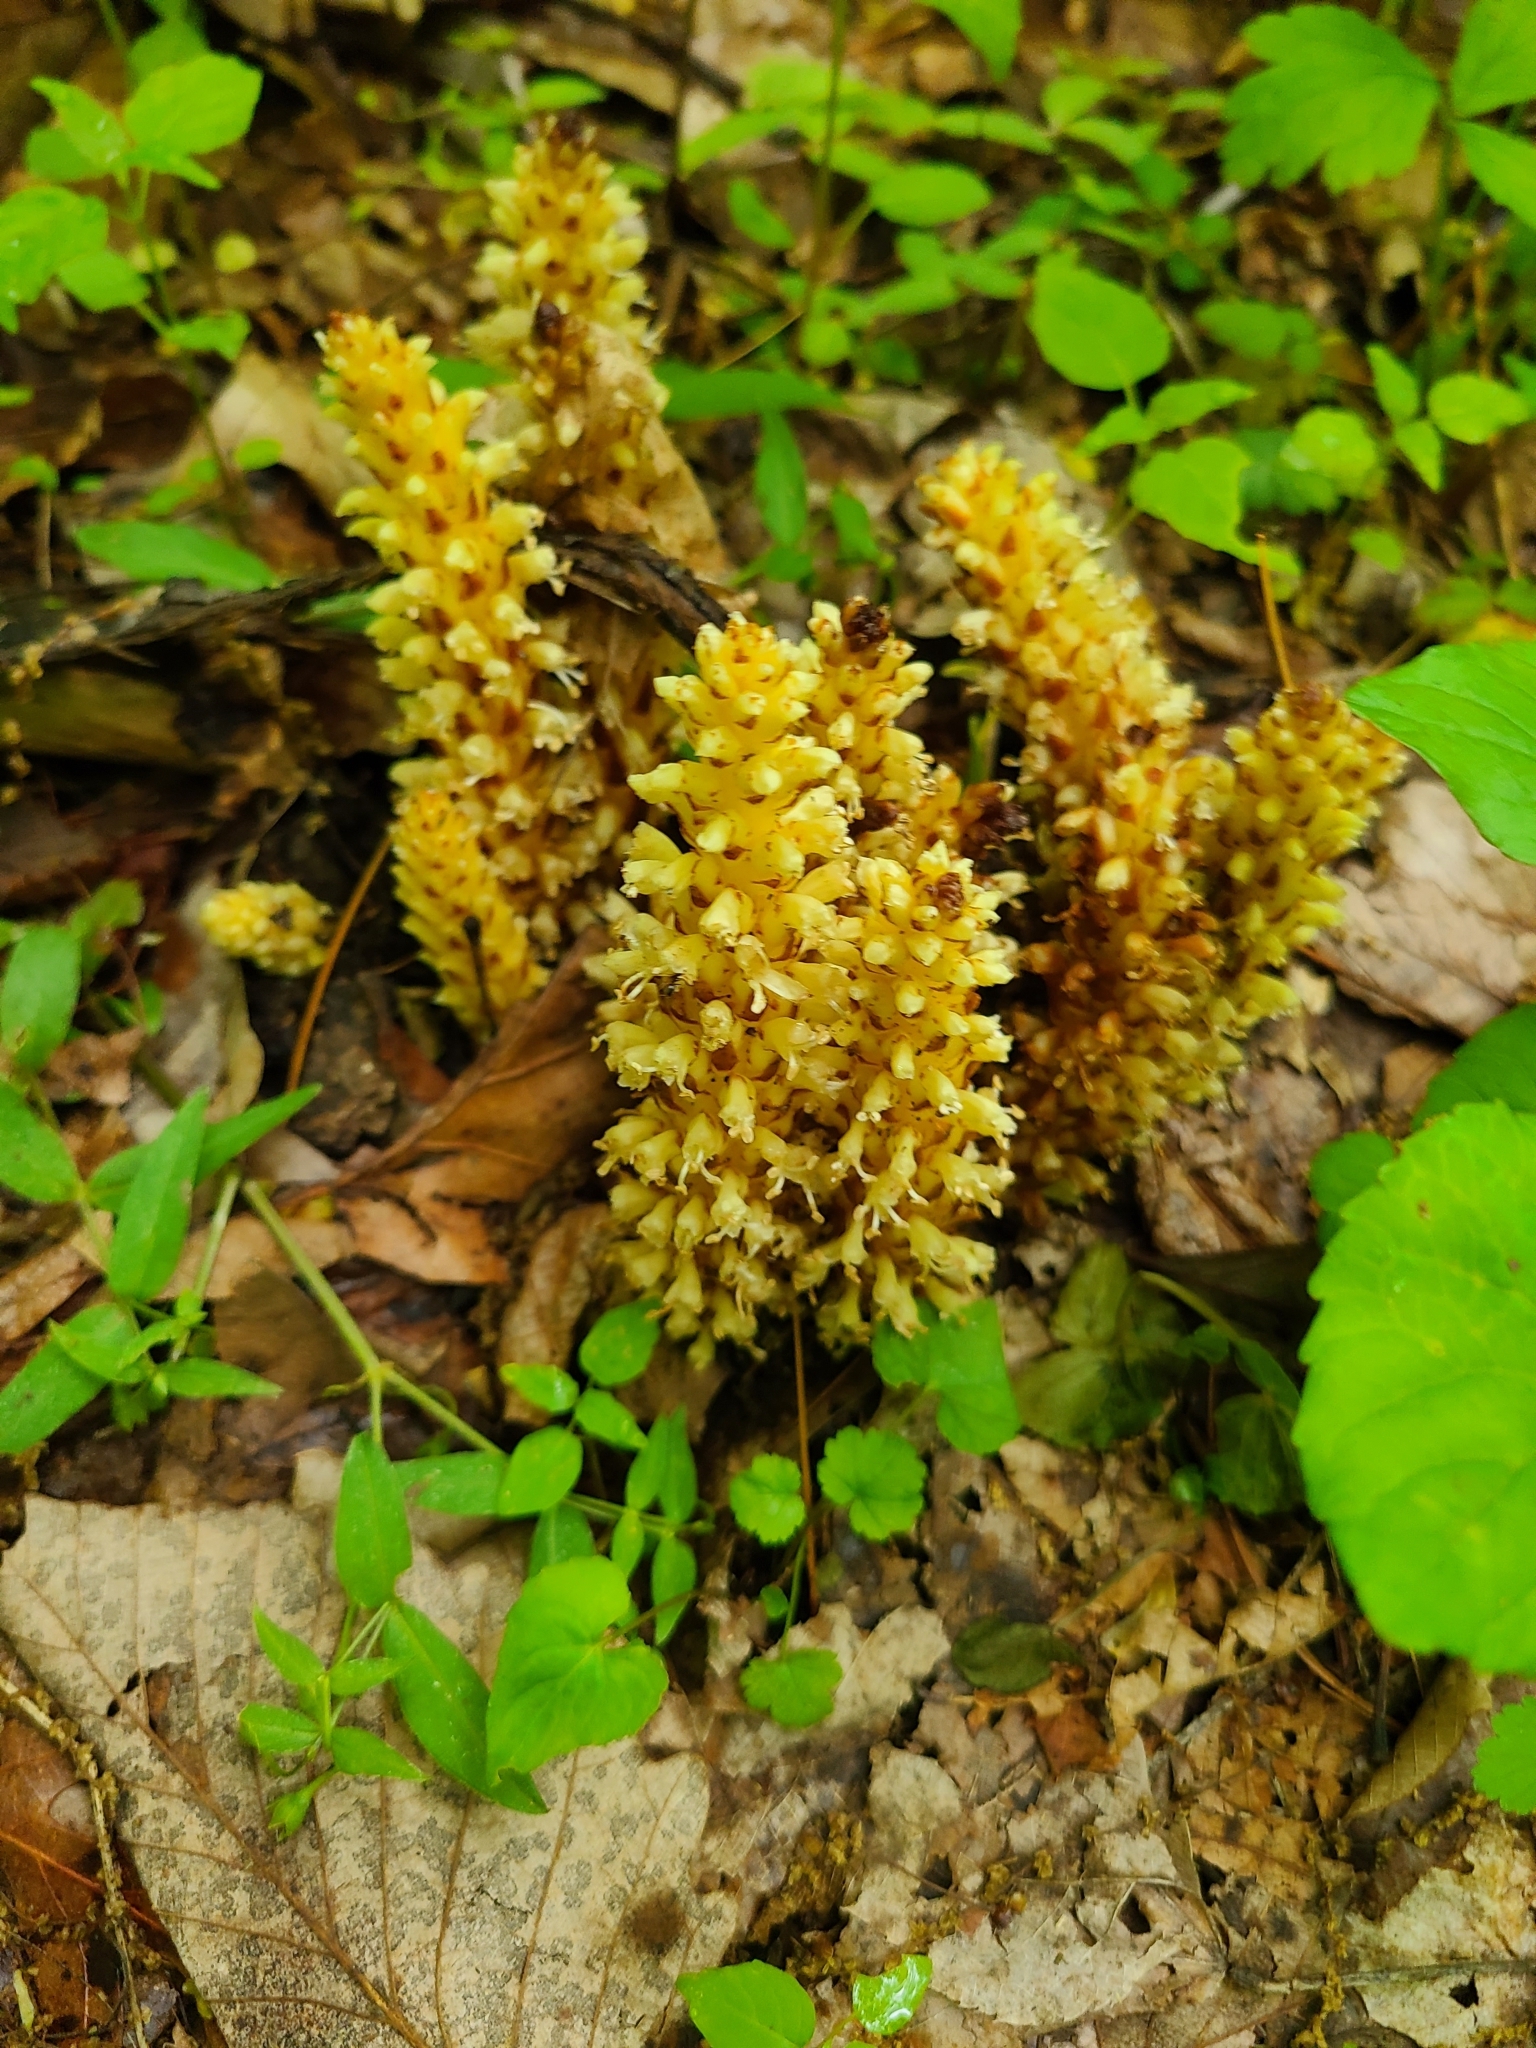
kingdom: Plantae
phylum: Tracheophyta
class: Magnoliopsida
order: Lamiales
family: Orobanchaceae
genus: Conopholis
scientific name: Conopholis americana
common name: American cancer-root
